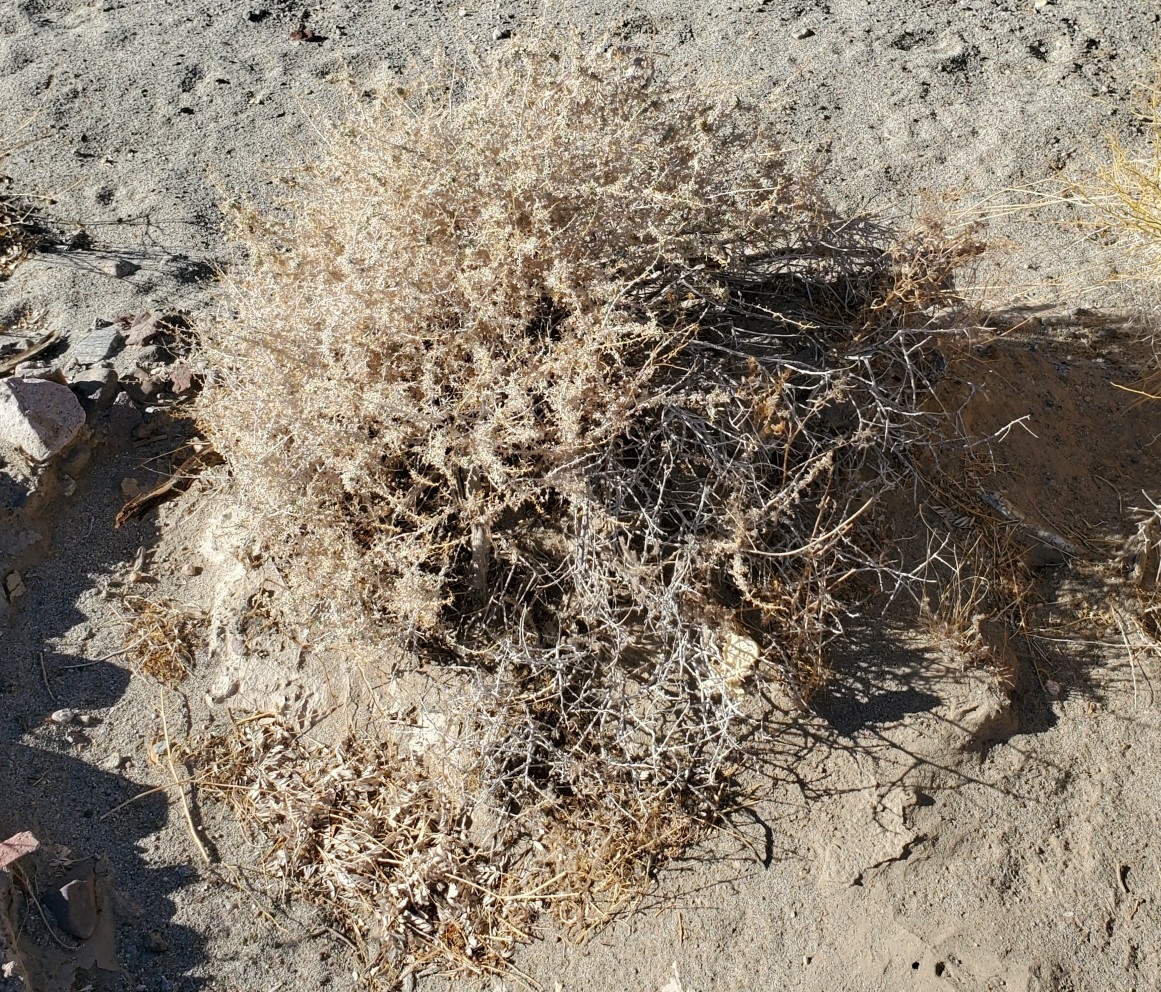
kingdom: Plantae
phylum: Tracheophyta
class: Magnoliopsida
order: Asterales
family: Asteraceae
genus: Ambrosia
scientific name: Ambrosia dumosa
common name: Bur-sage
